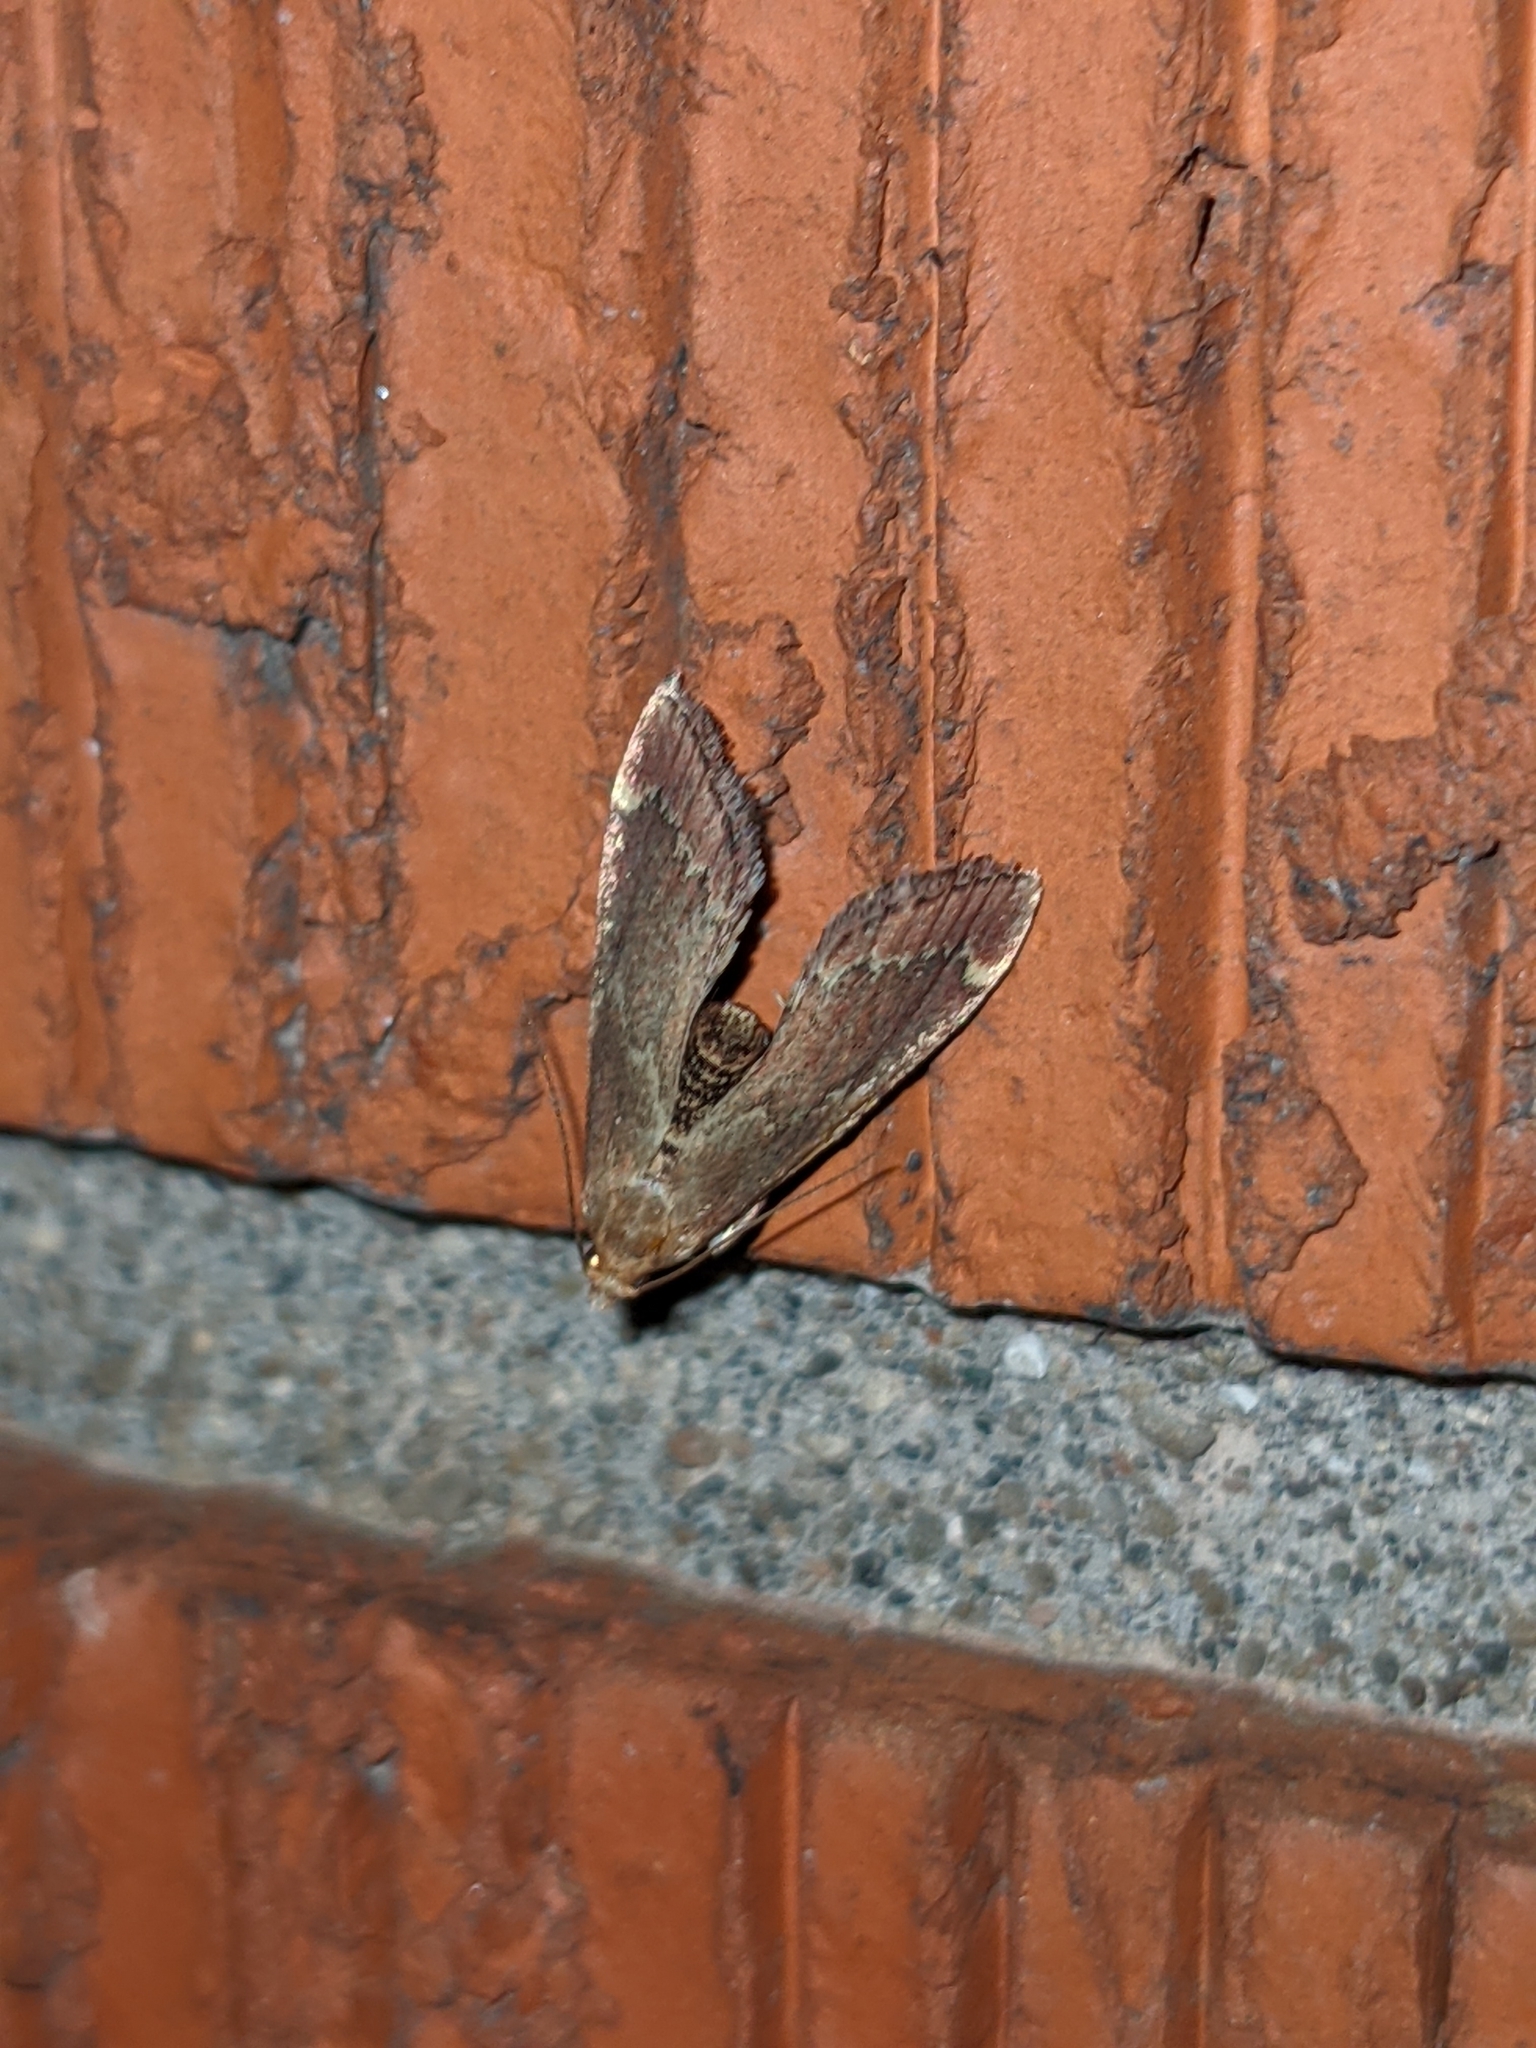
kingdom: Animalia
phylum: Arthropoda
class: Insecta
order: Lepidoptera
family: Pyralidae
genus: Hypsopygia
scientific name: Hypsopygia intermedialis
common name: Red-shawled moth
